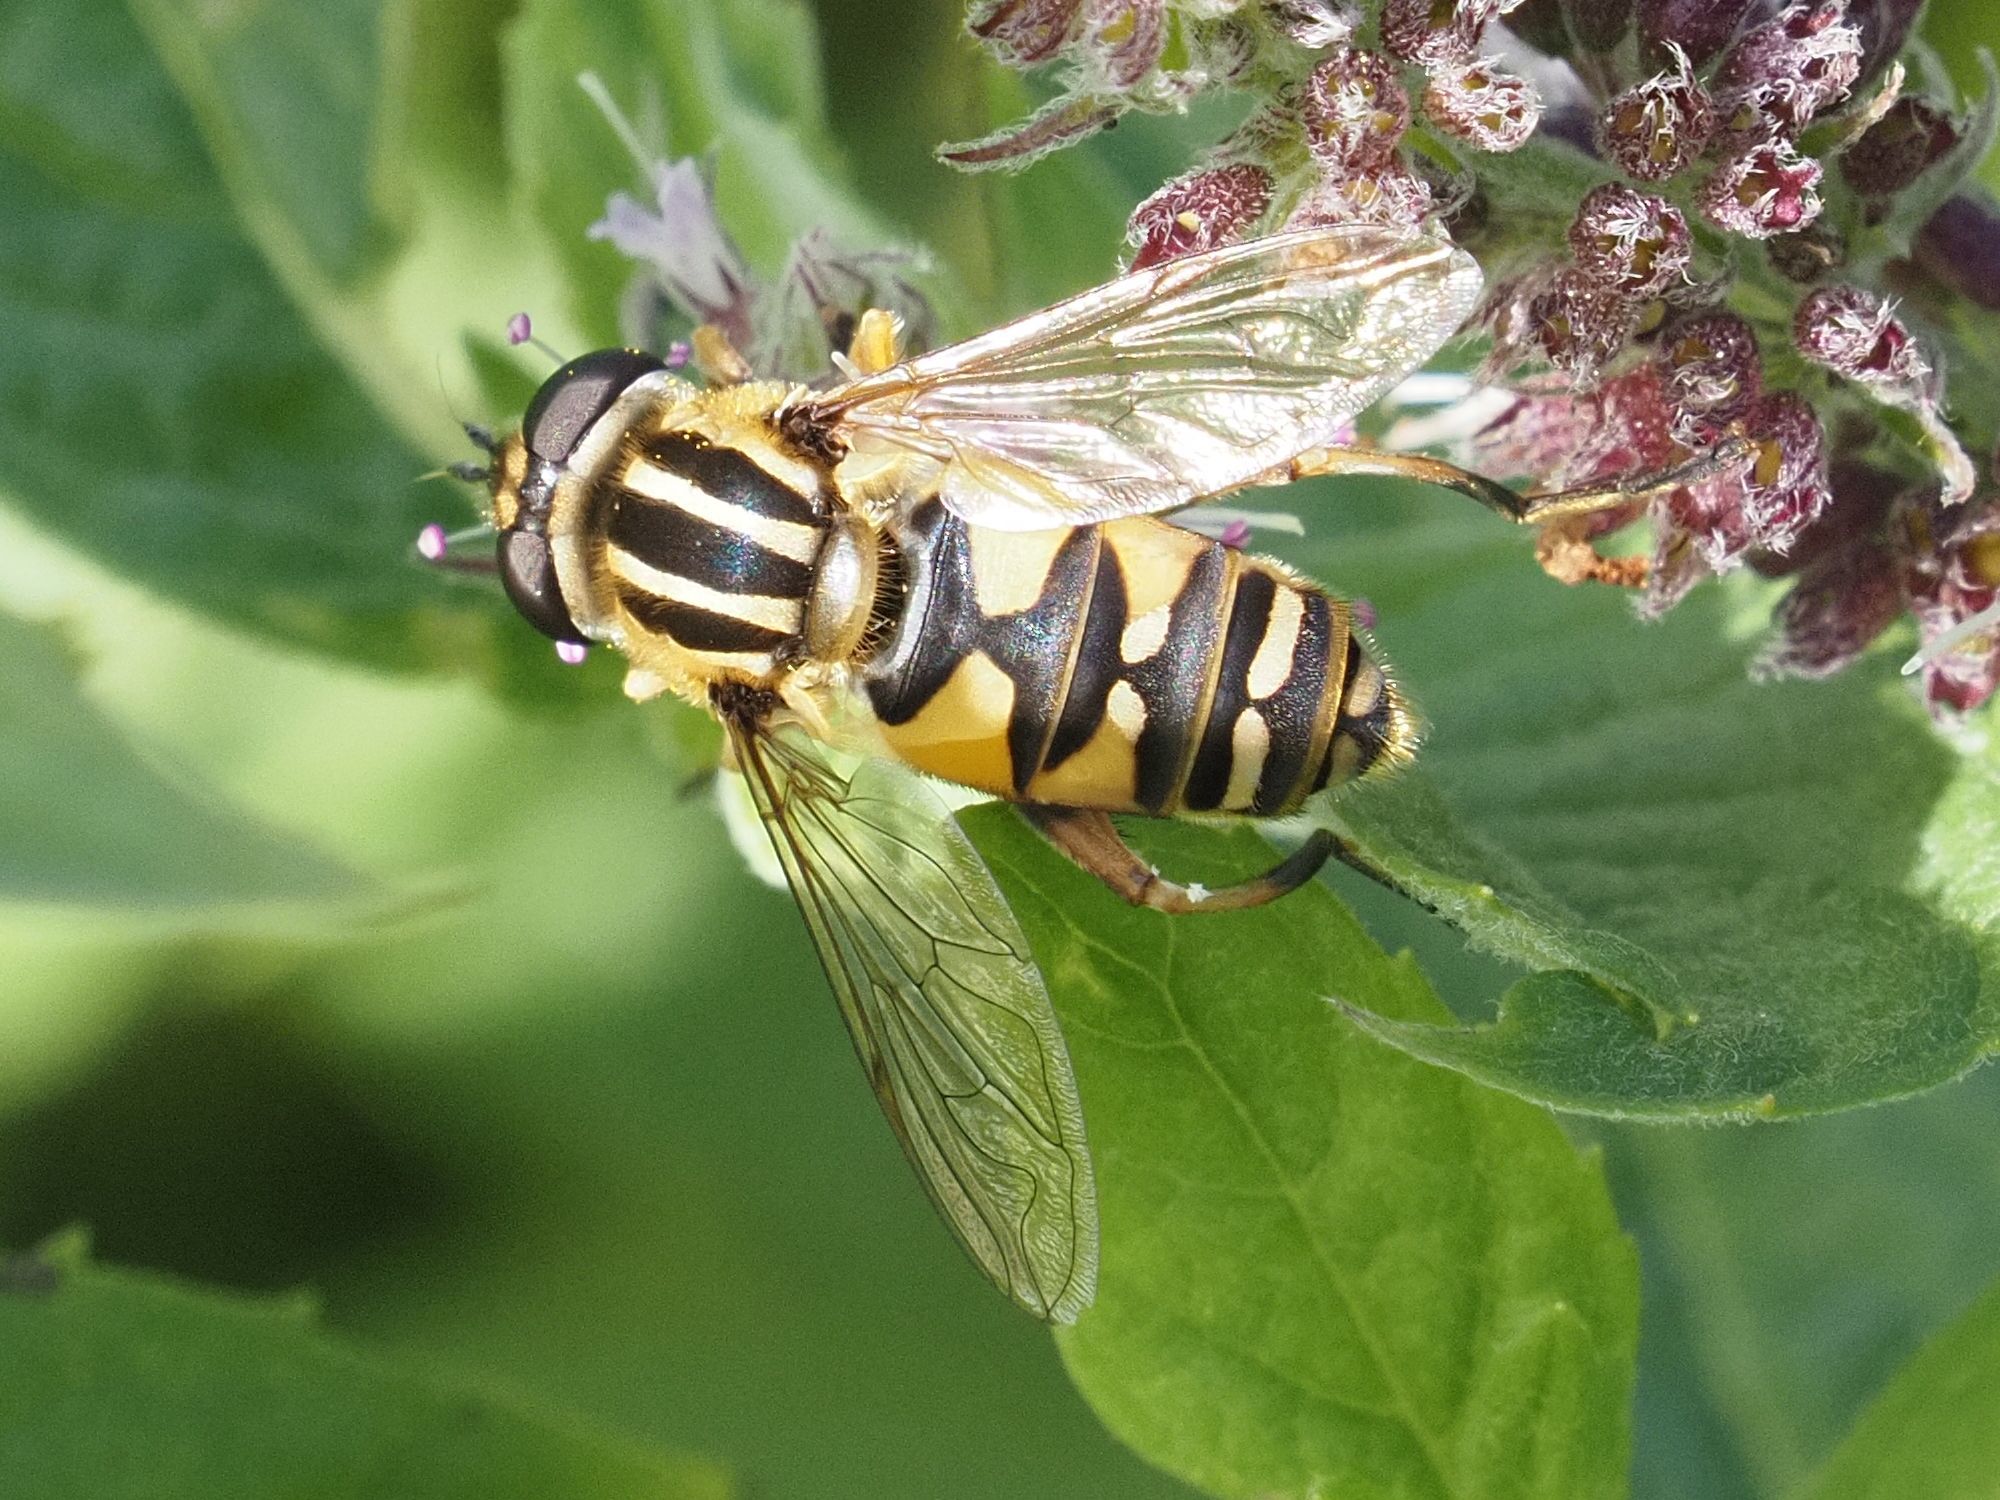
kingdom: Animalia
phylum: Arthropoda
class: Insecta
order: Diptera
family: Syrphidae
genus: Helophilus
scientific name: Helophilus pendulus
